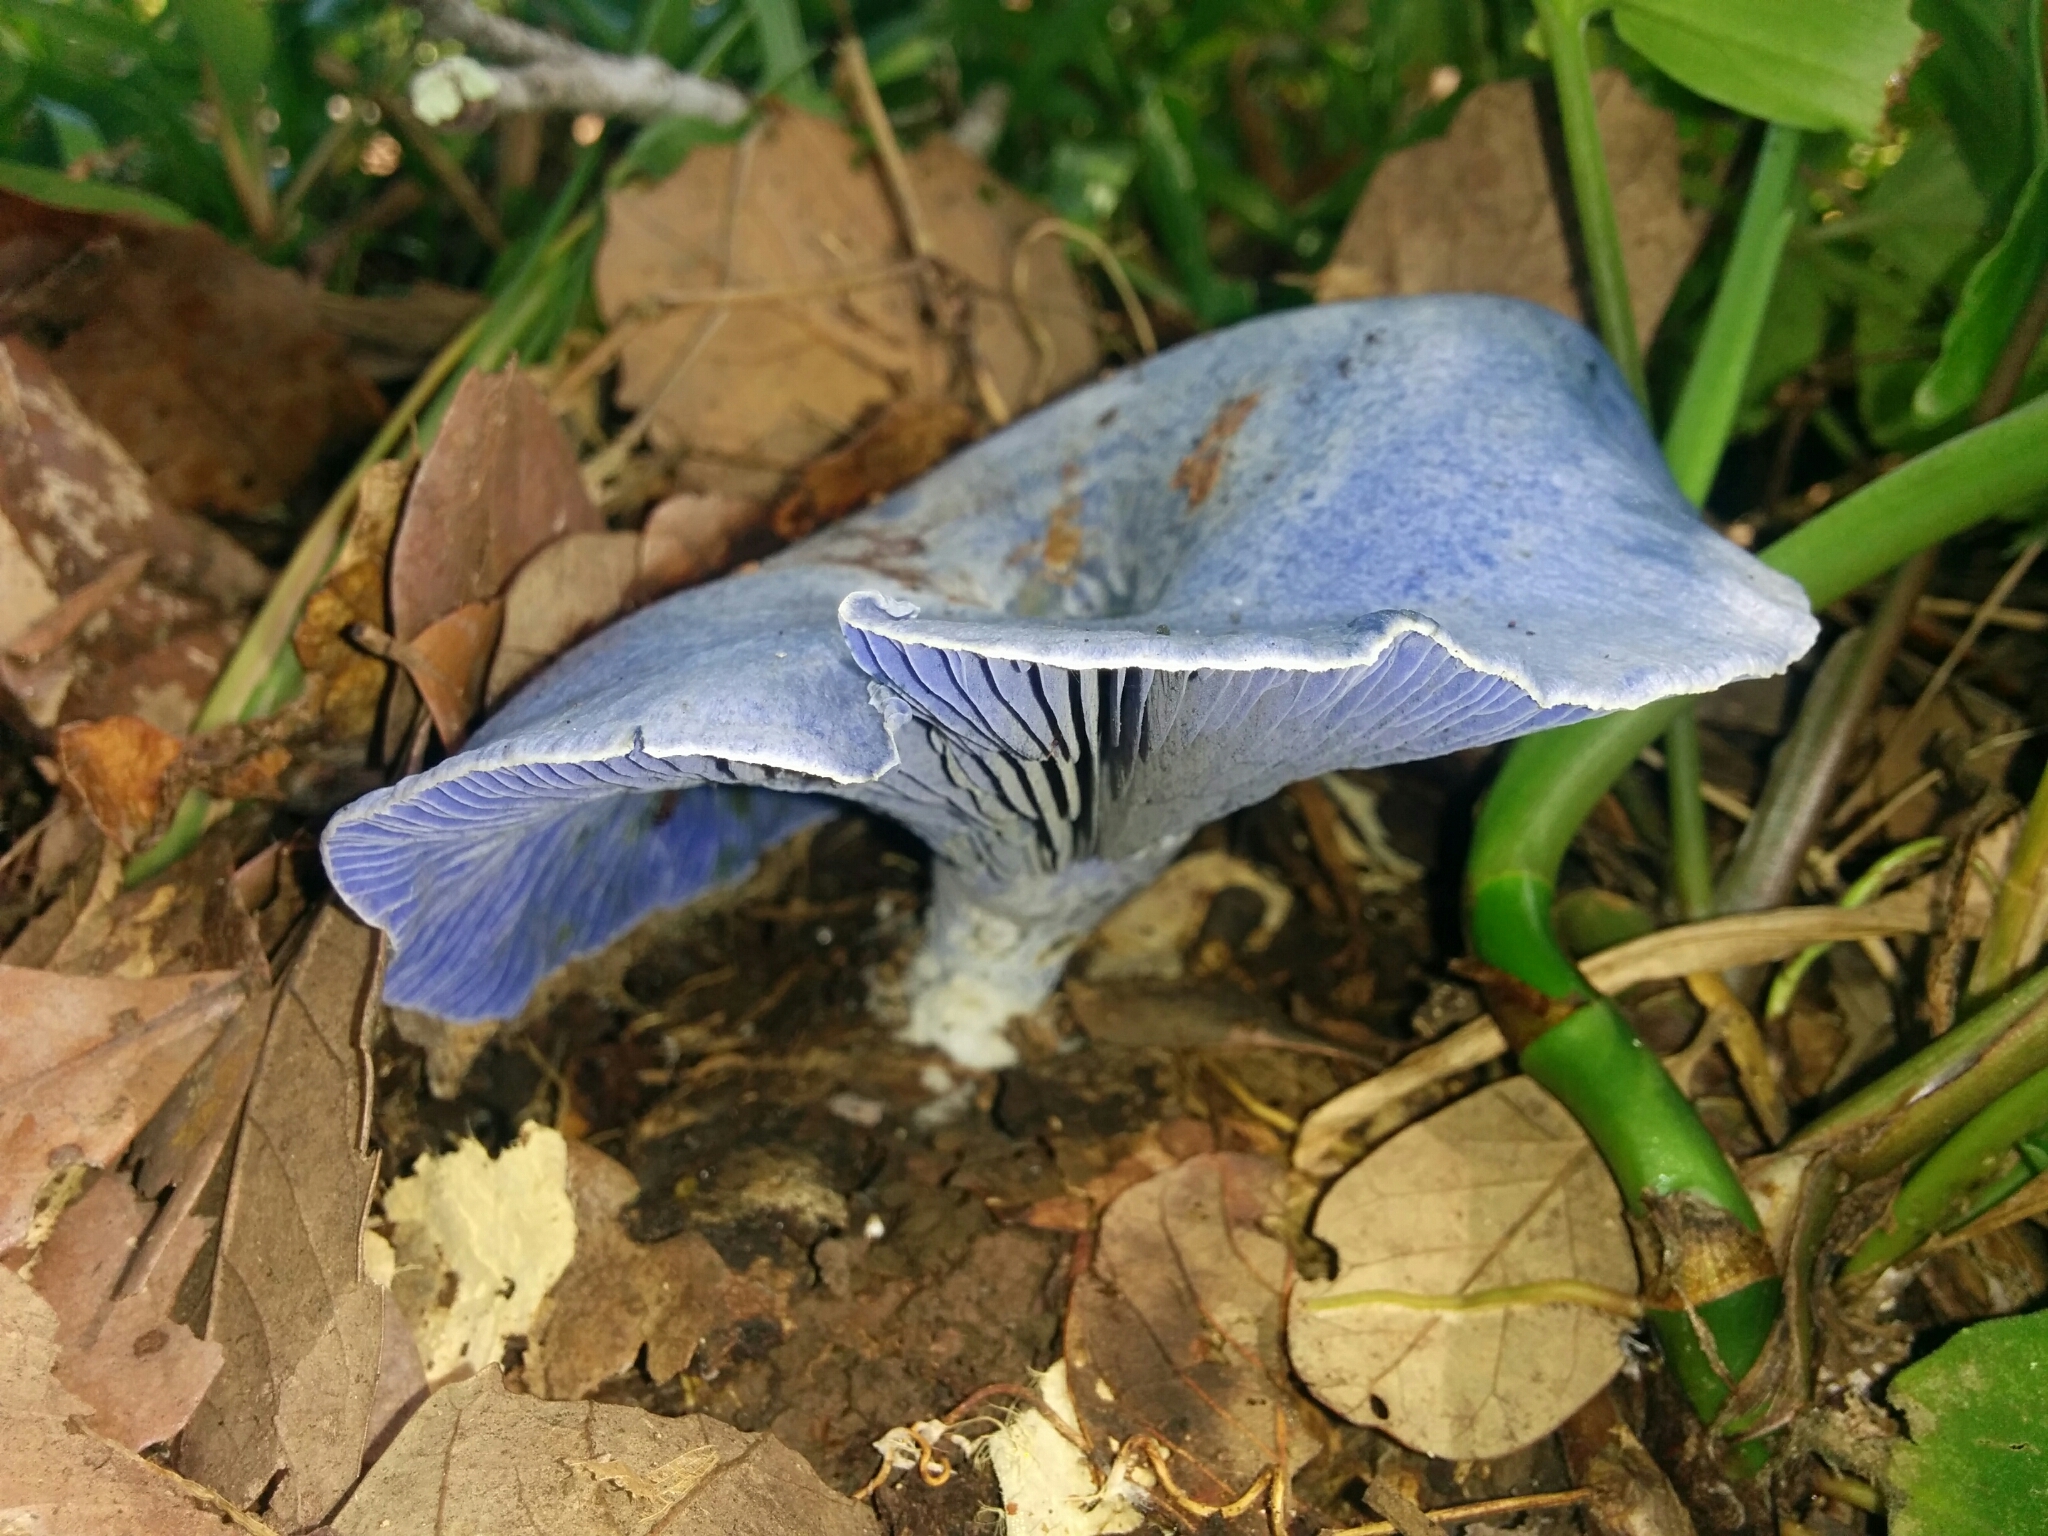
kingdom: Fungi
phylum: Basidiomycota
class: Agaricomycetes
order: Russulales
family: Russulaceae
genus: Lactarius
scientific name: Lactarius indigo
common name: Indigo milk cap
